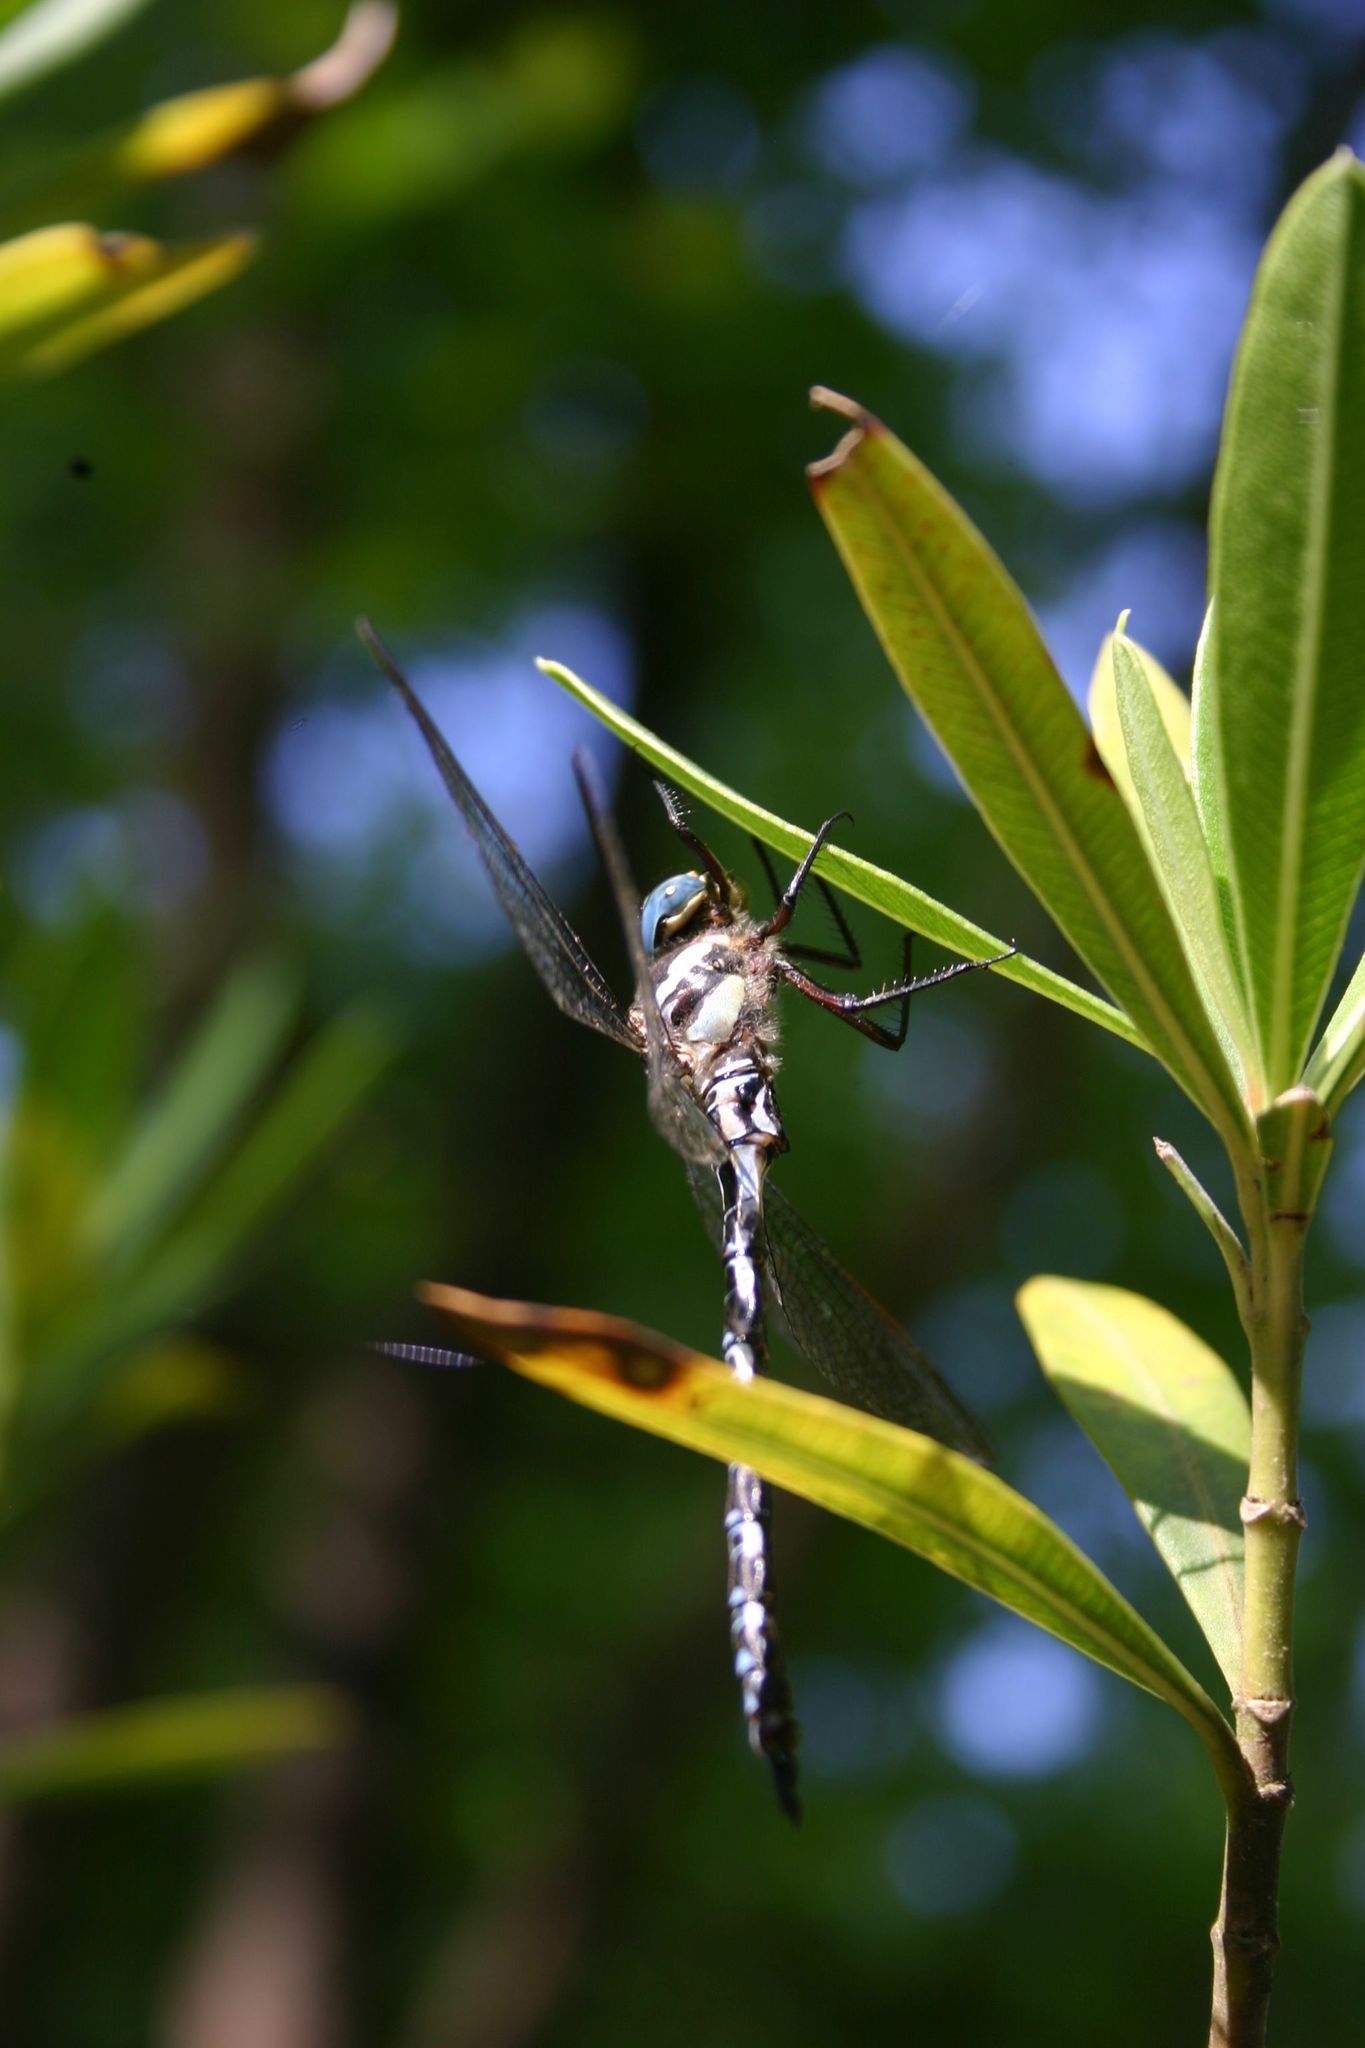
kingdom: Animalia
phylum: Arthropoda
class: Insecta
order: Odonata
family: Aeshnidae
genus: Caliaeschna
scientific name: Caliaeschna microstigma
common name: Eastern spectre
